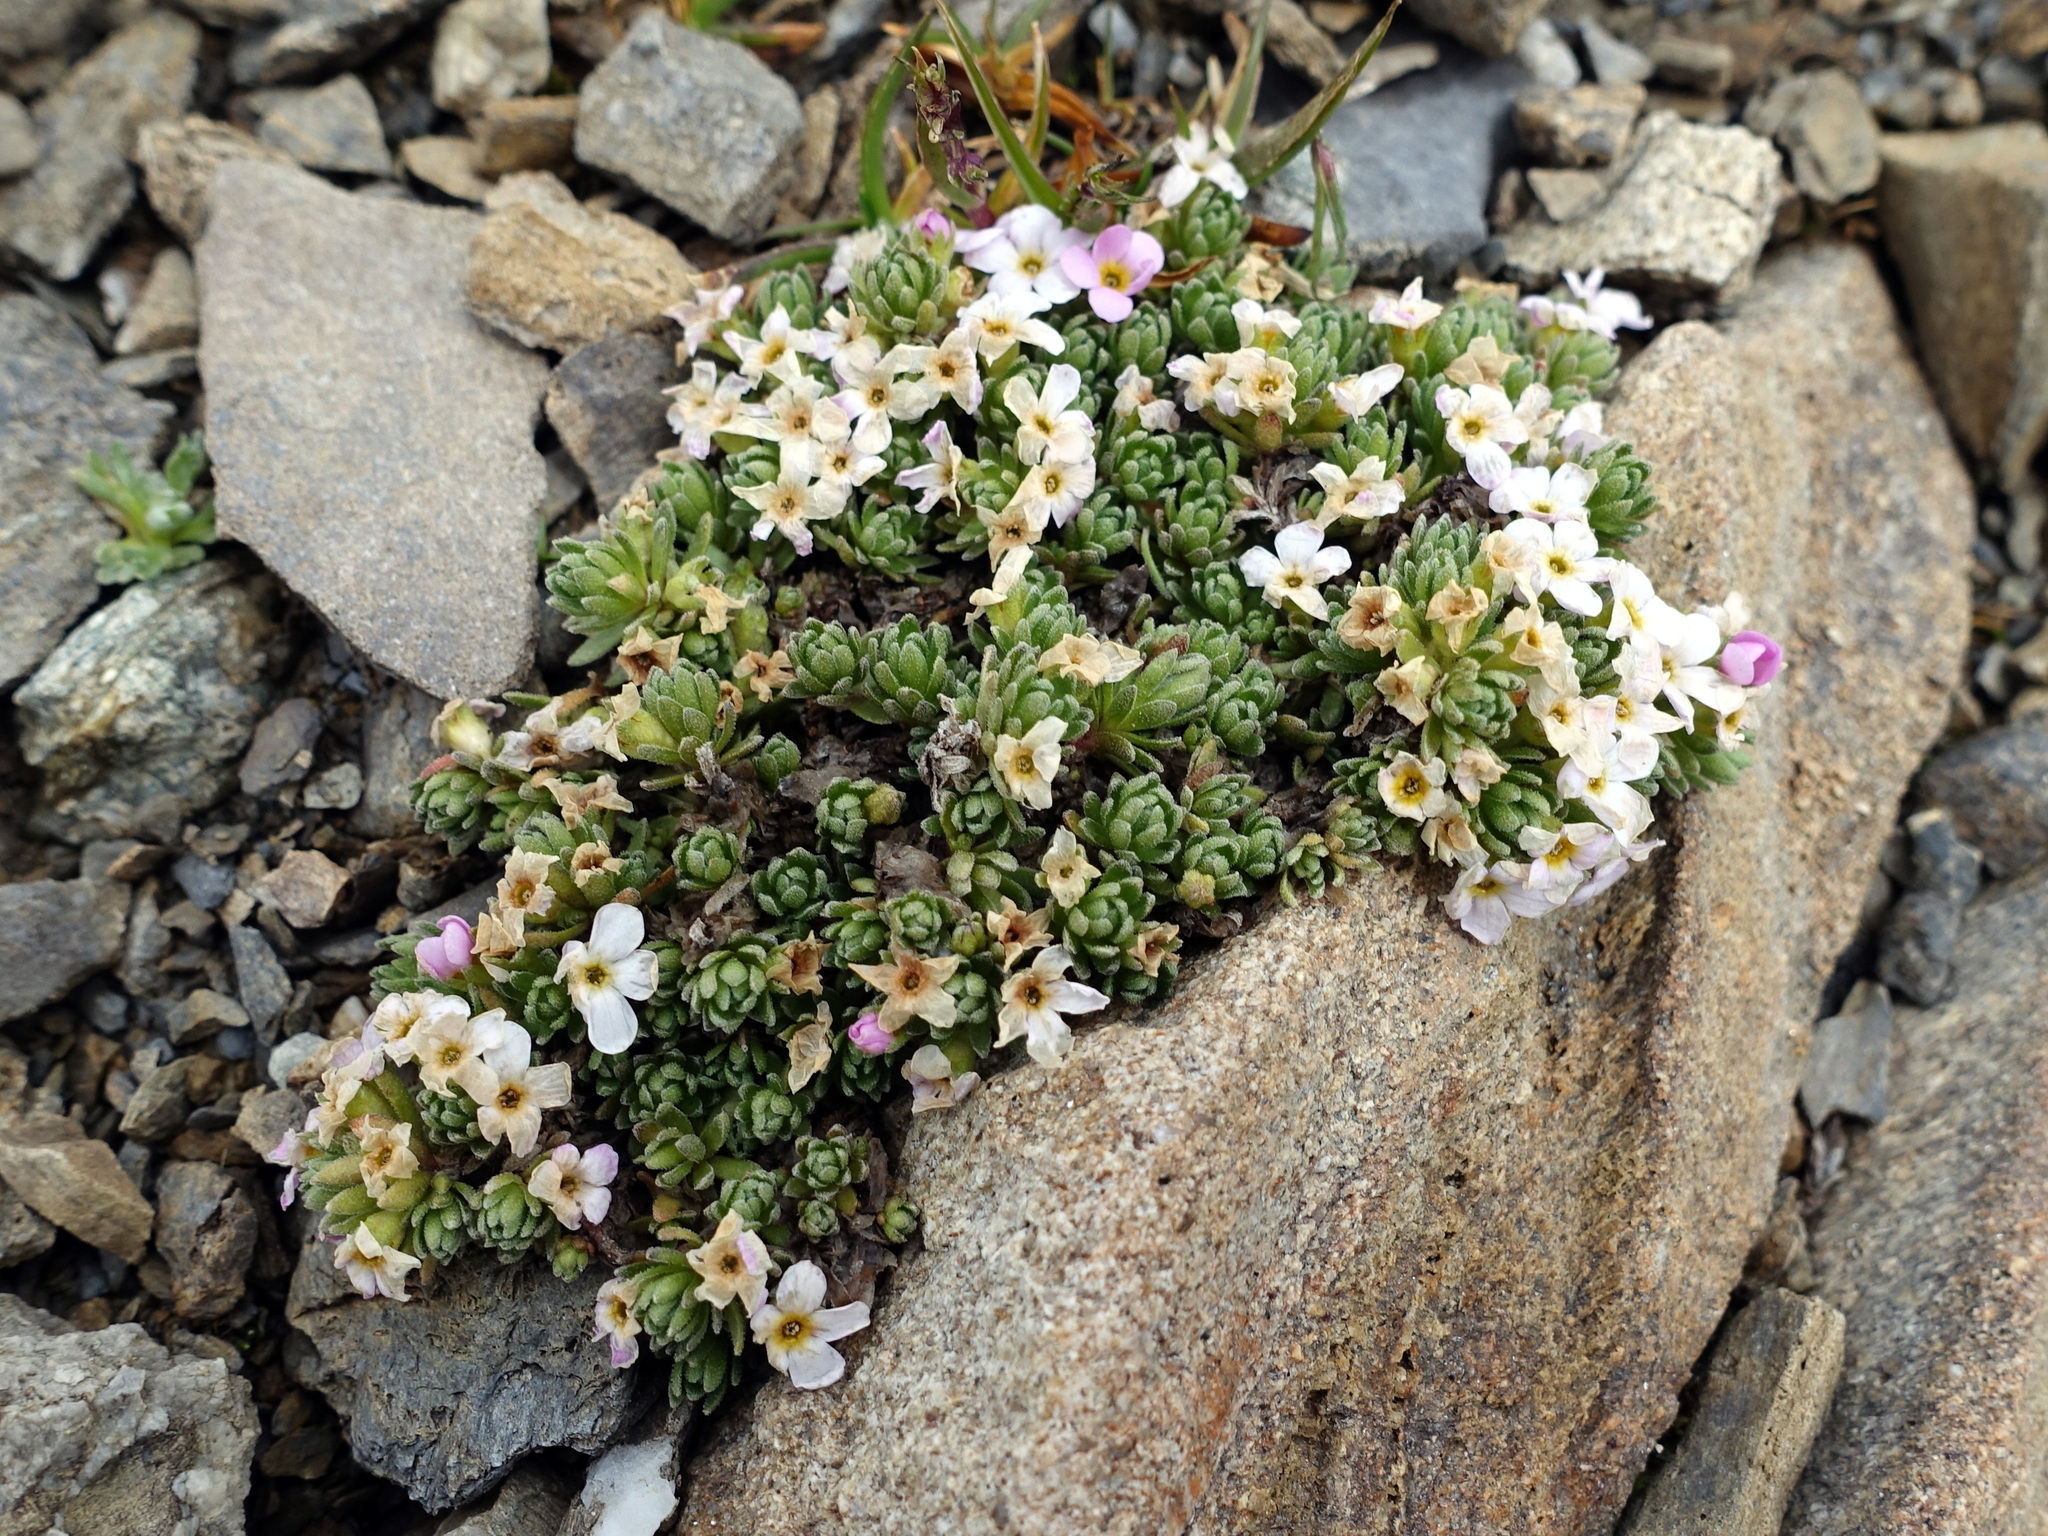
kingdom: Plantae
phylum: Tracheophyta
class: Magnoliopsida
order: Ericales
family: Primulaceae
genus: Androsace
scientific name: Androsace alpina
